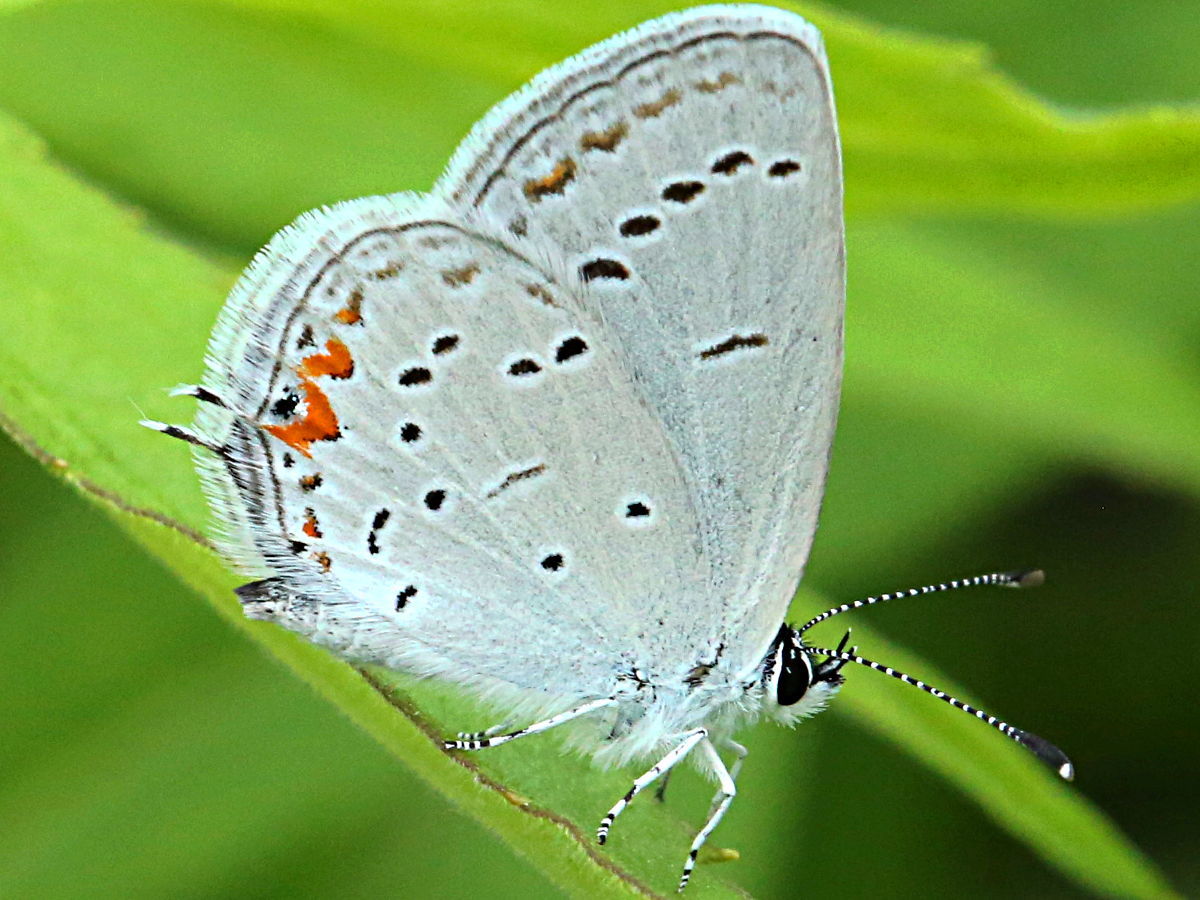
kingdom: Animalia
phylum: Arthropoda
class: Insecta
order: Lepidoptera
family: Lycaenidae
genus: Elkalyce
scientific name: Elkalyce comyntas
